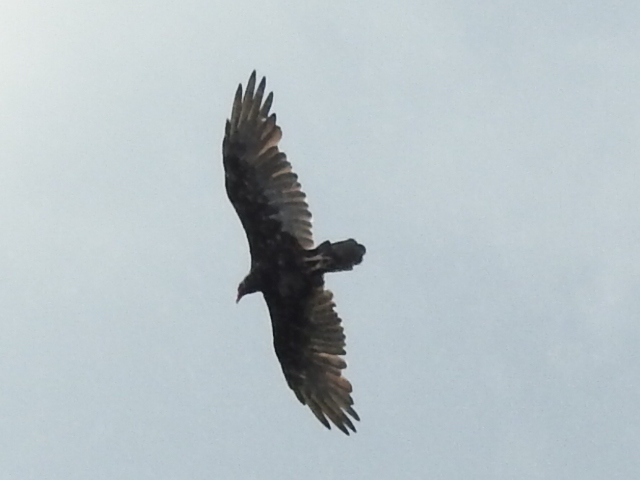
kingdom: Animalia
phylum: Chordata
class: Aves
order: Accipitriformes
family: Cathartidae
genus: Cathartes
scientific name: Cathartes aura
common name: Turkey vulture
